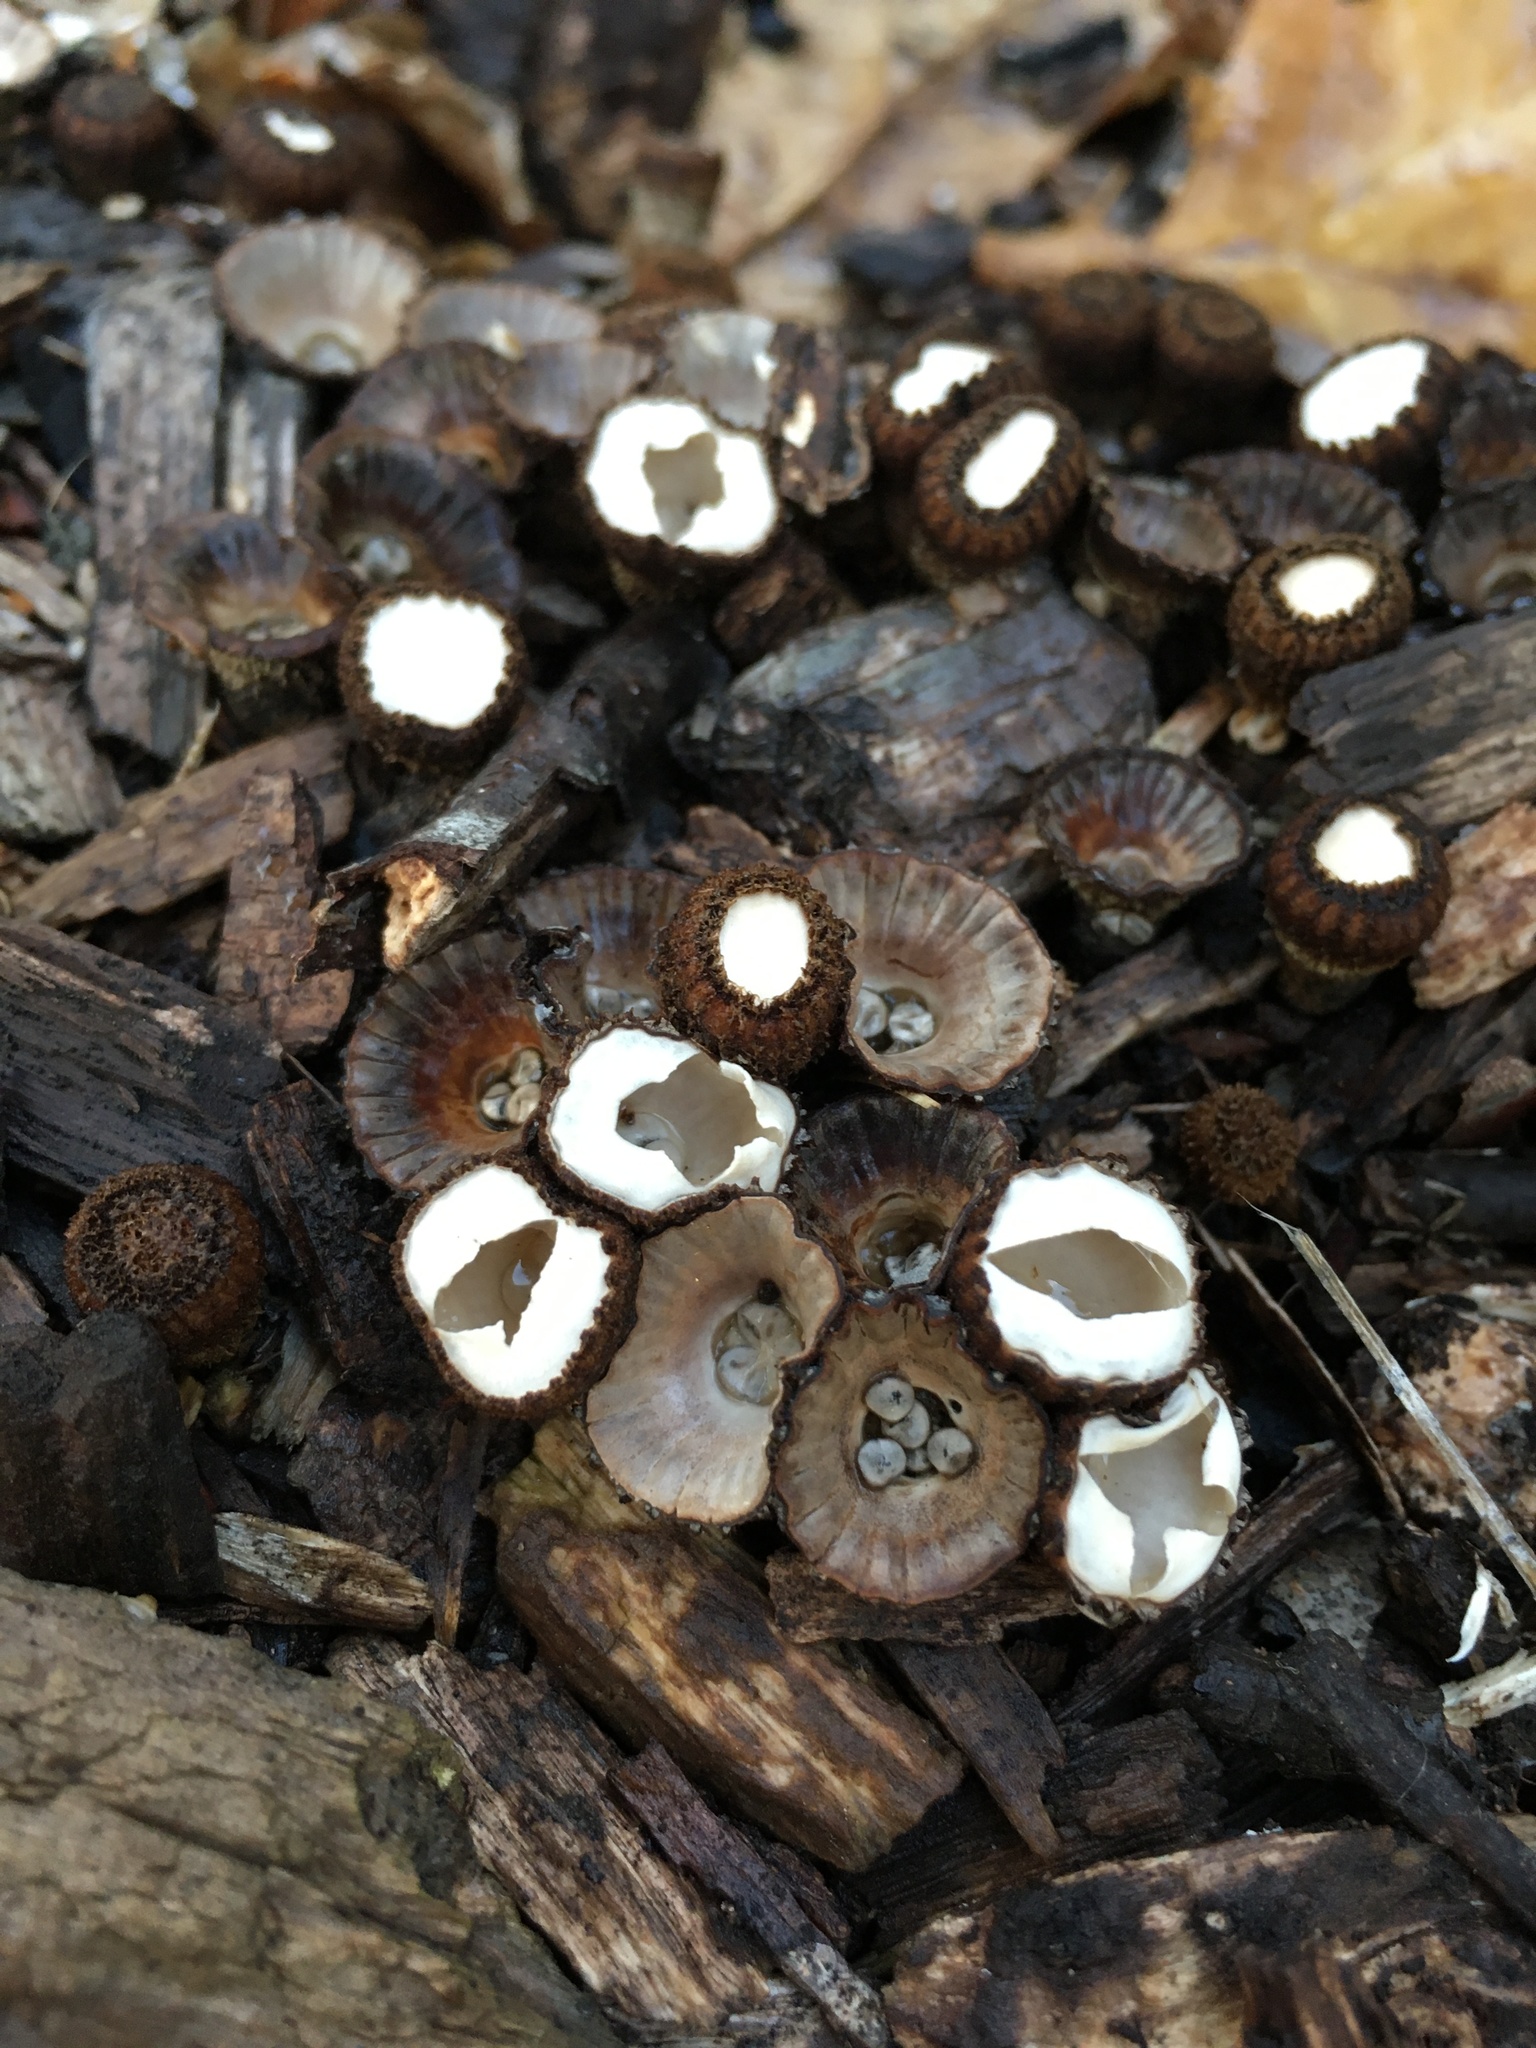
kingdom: Fungi
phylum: Basidiomycota
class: Agaricomycetes
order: Agaricales
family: Agaricaceae
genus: Cyathus
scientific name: Cyathus striatus
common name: Fluted bird's nest
